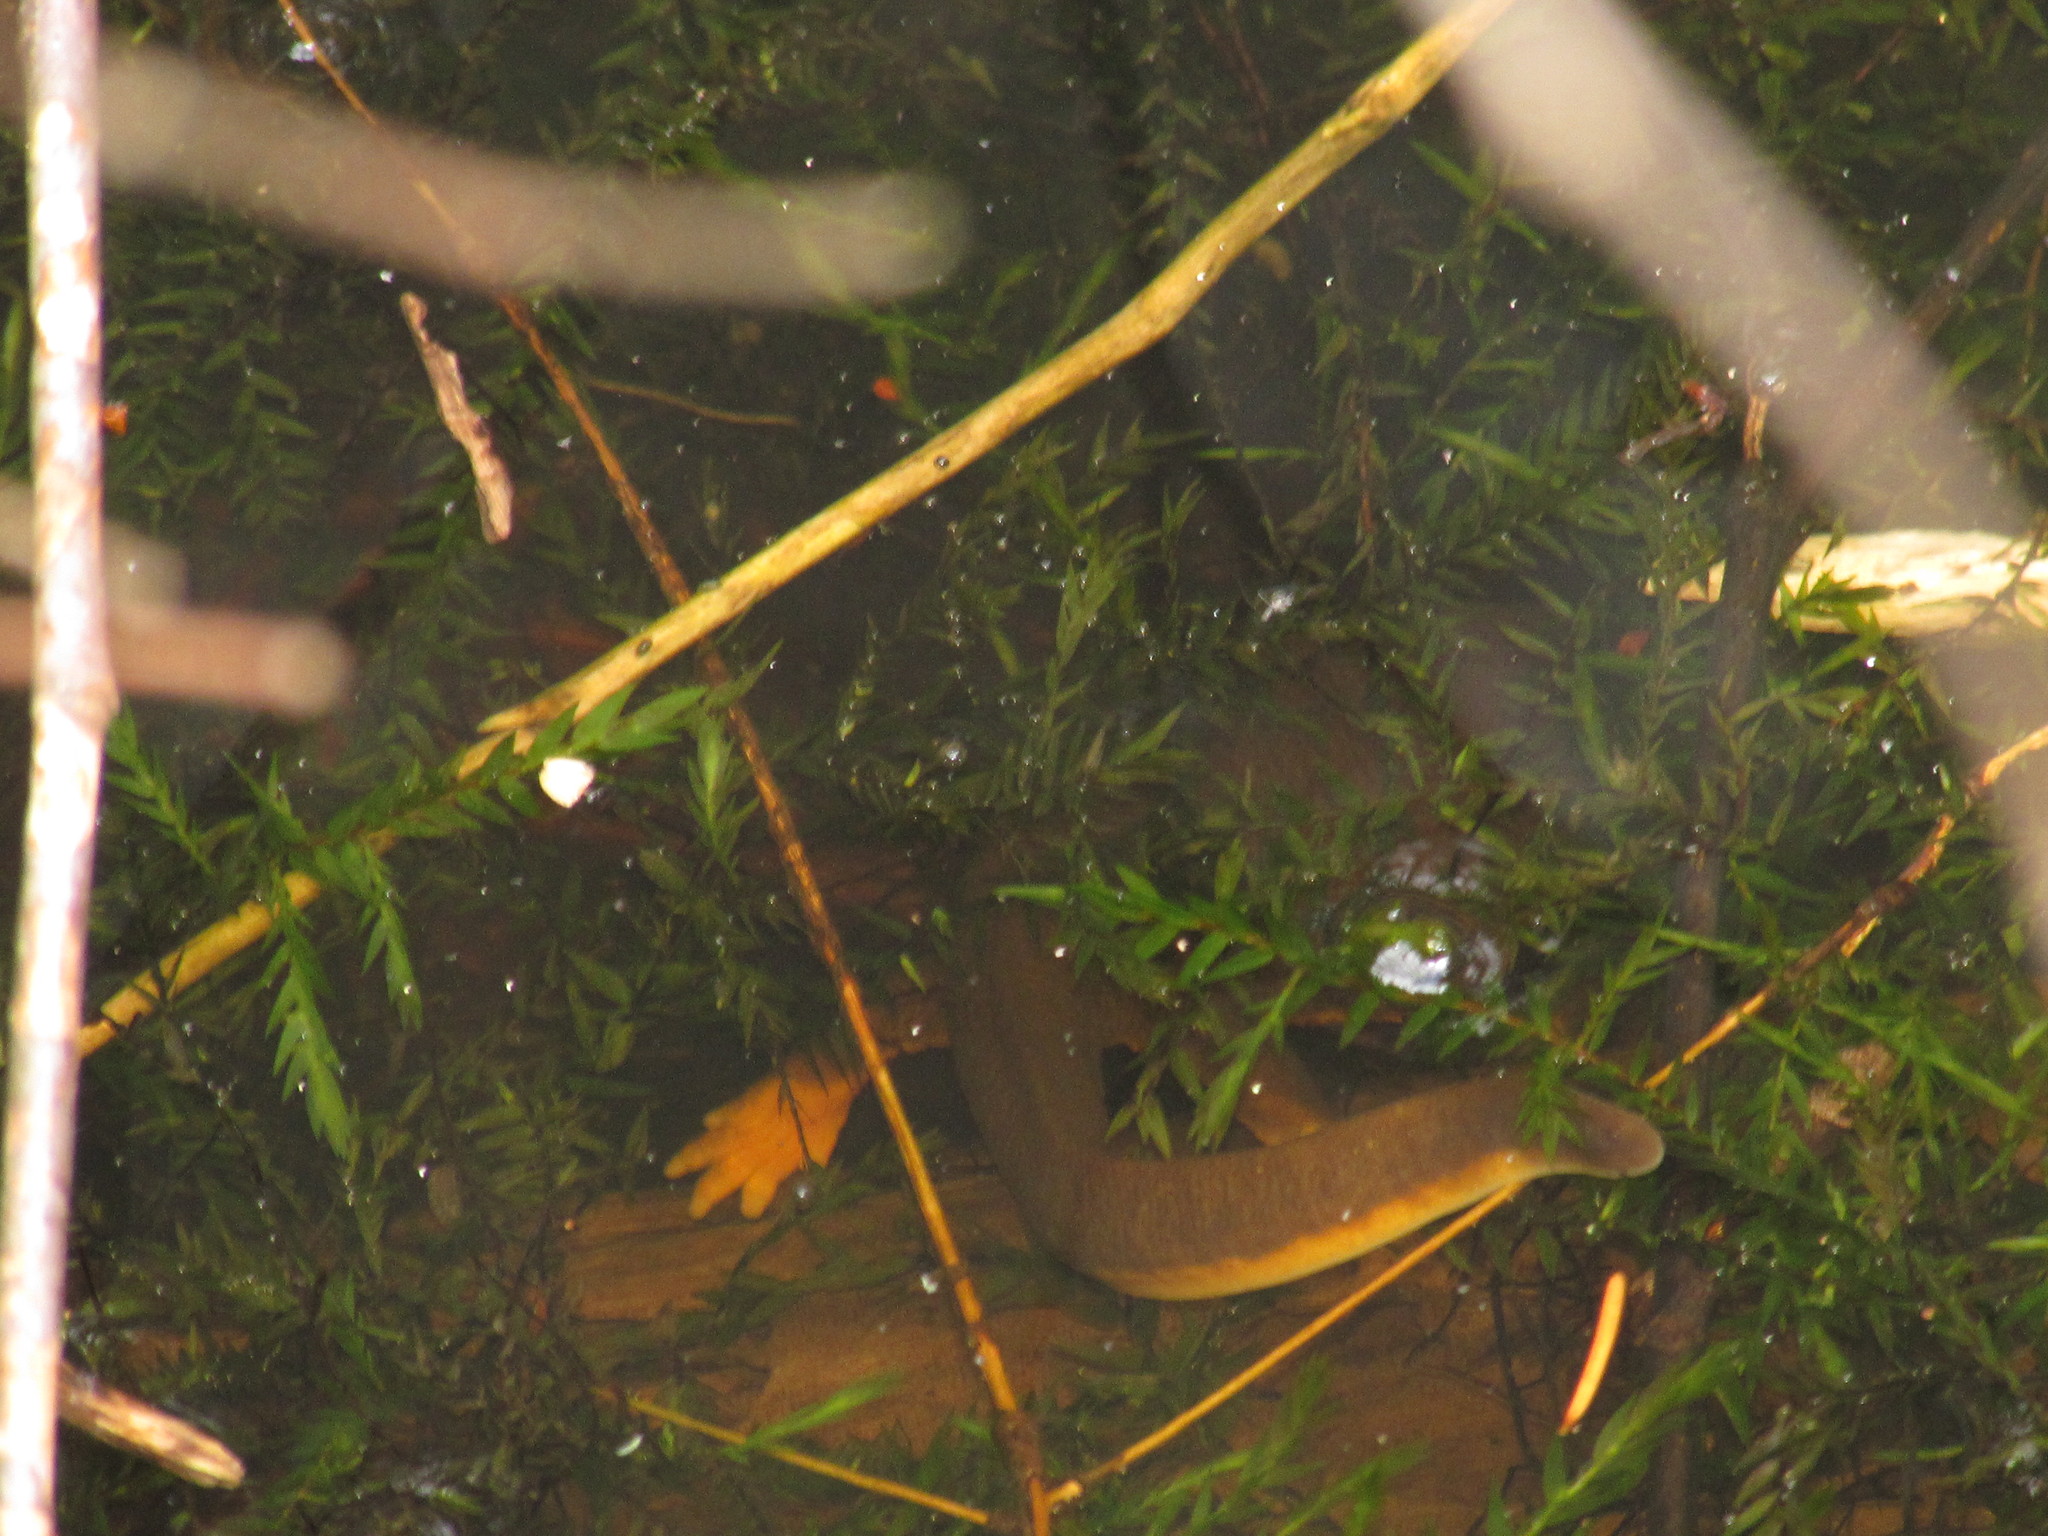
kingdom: Animalia
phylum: Chordata
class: Amphibia
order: Caudata
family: Salamandridae
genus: Taricha
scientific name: Taricha granulosa
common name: Roughskin newt
